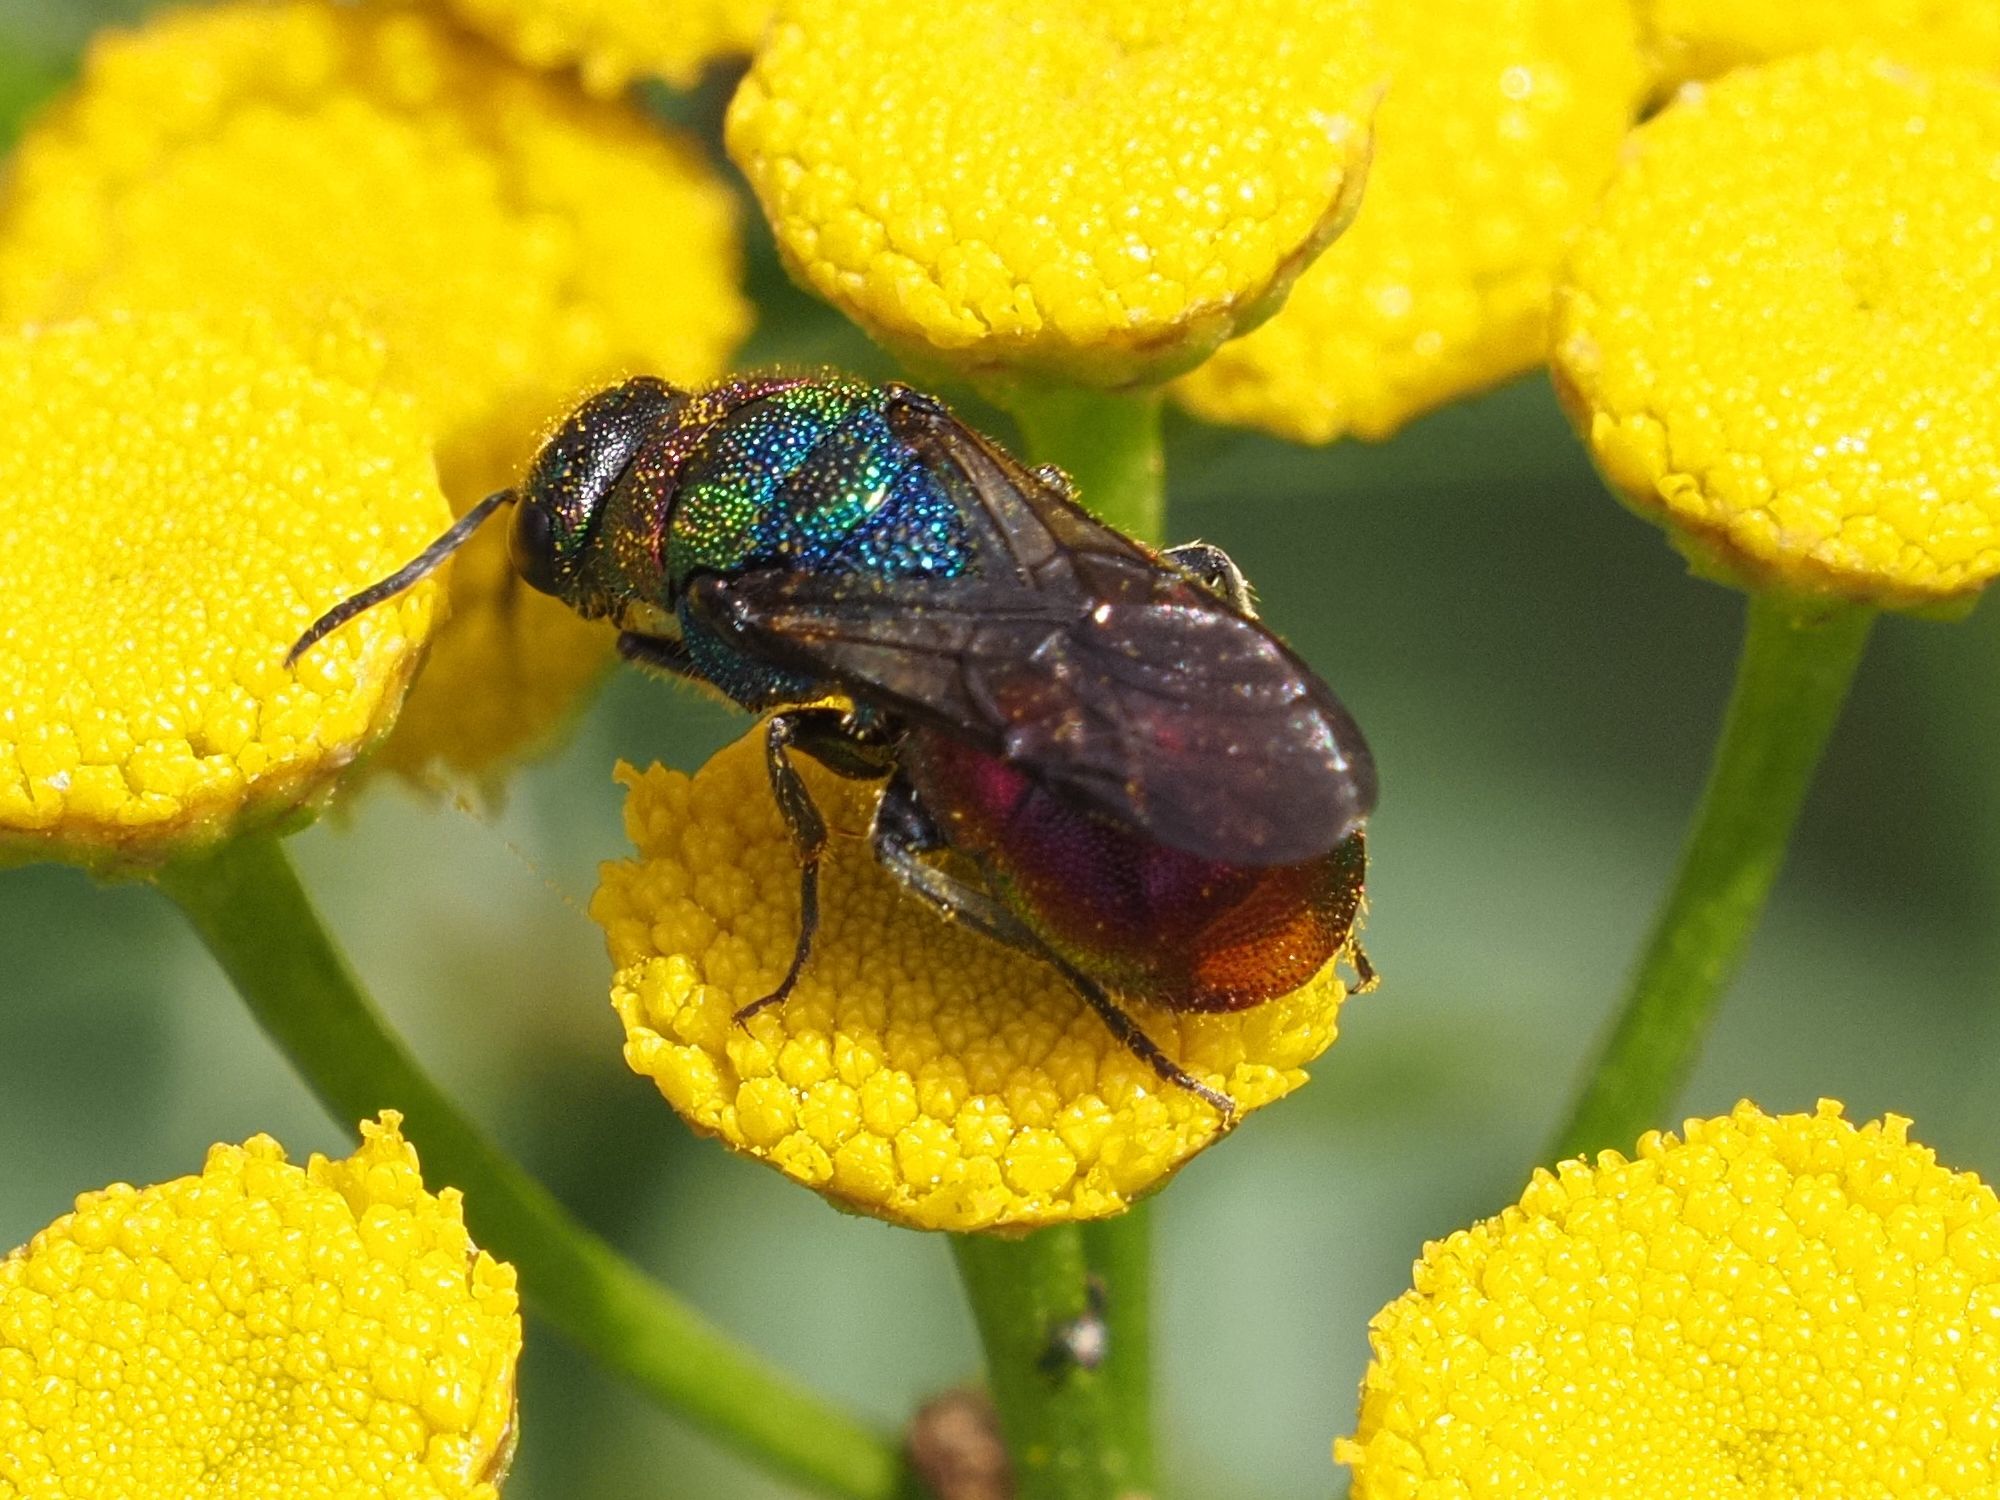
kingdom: Animalia
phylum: Arthropoda
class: Insecta
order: Hymenoptera
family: Chrysididae
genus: Hedychrum
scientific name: Hedychrum rutilans
